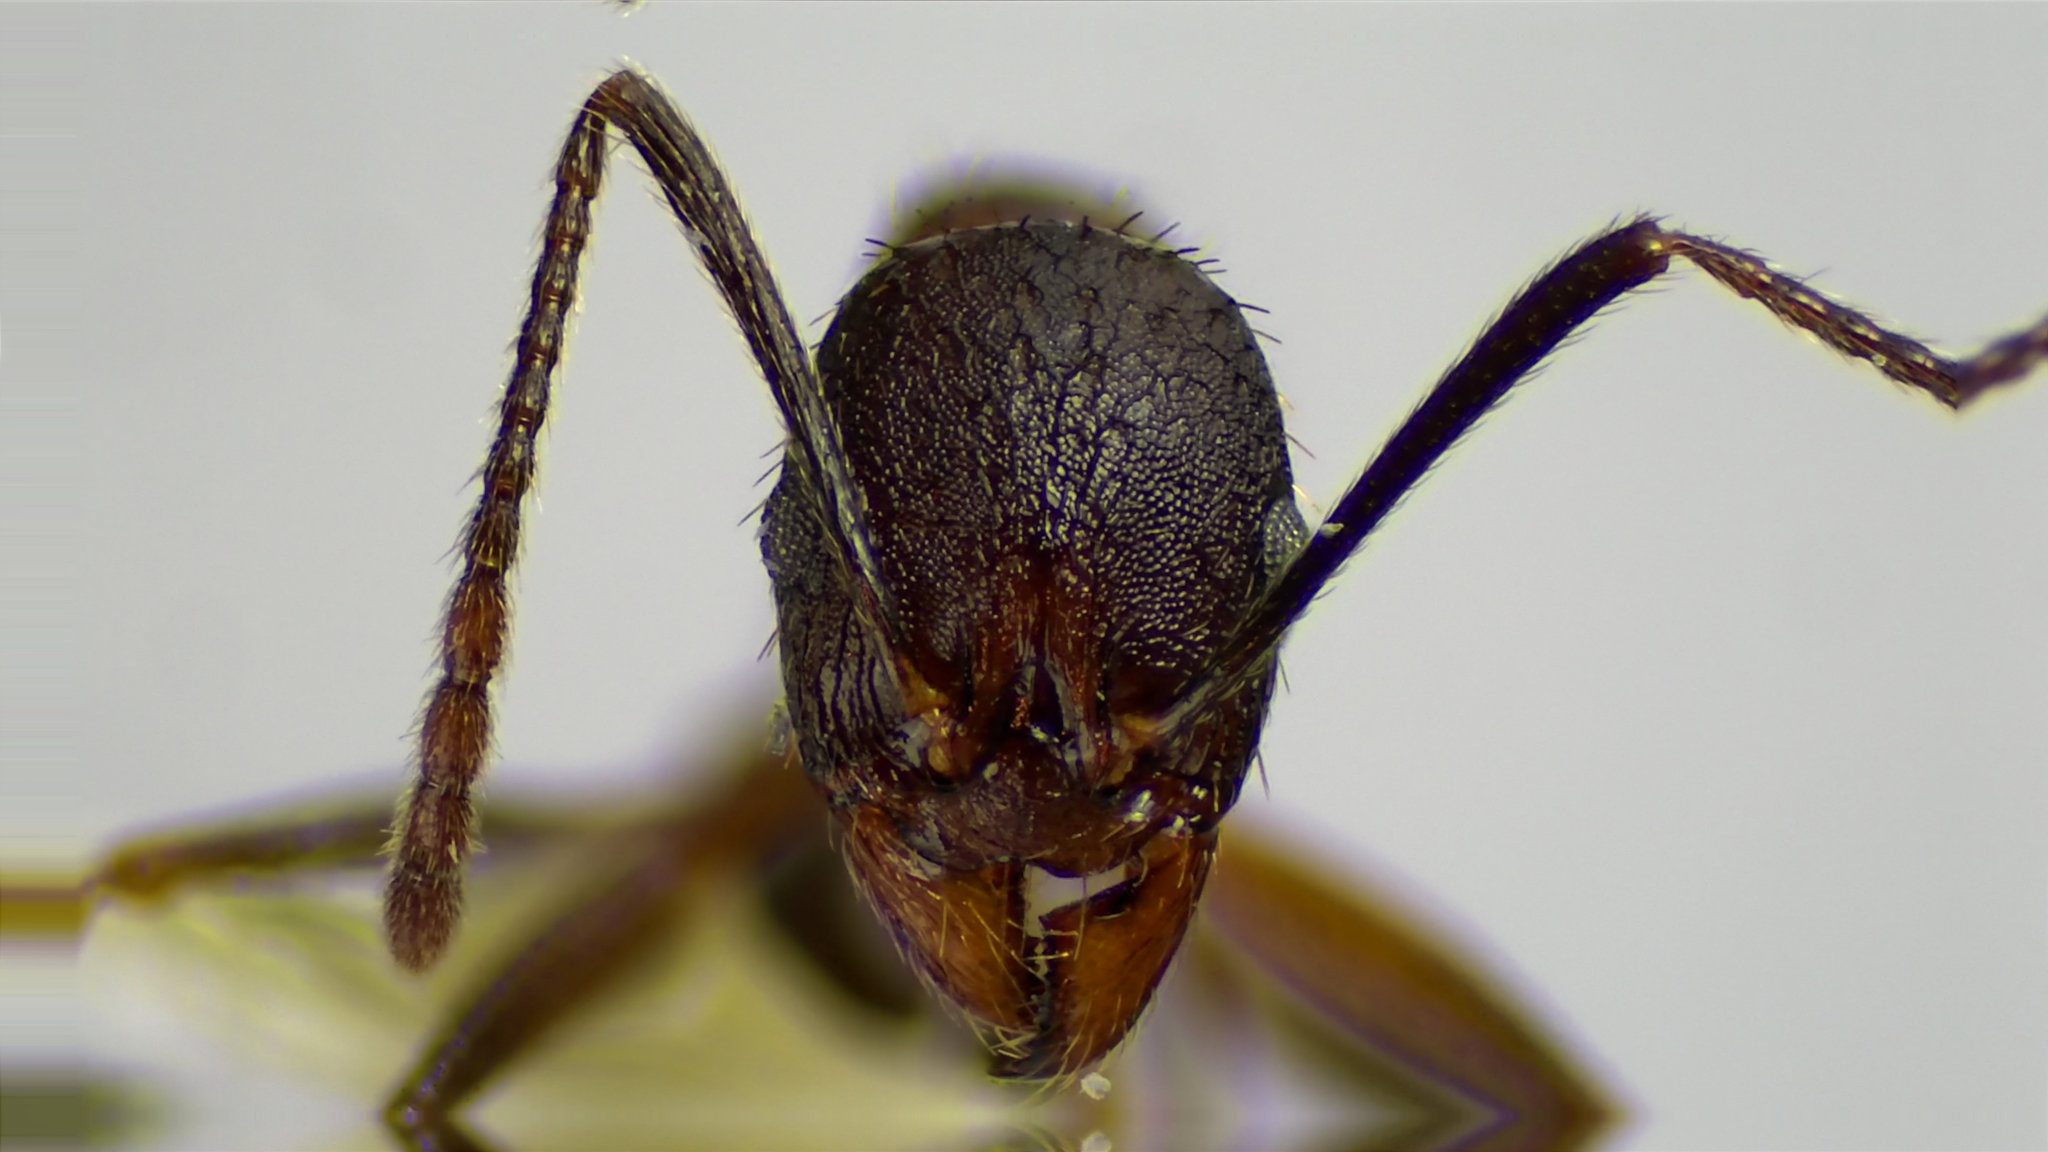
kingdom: Animalia
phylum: Arthropoda
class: Insecta
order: Hymenoptera
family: Formicidae
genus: Aphaenogaster
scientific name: Aphaenogaster fulva
